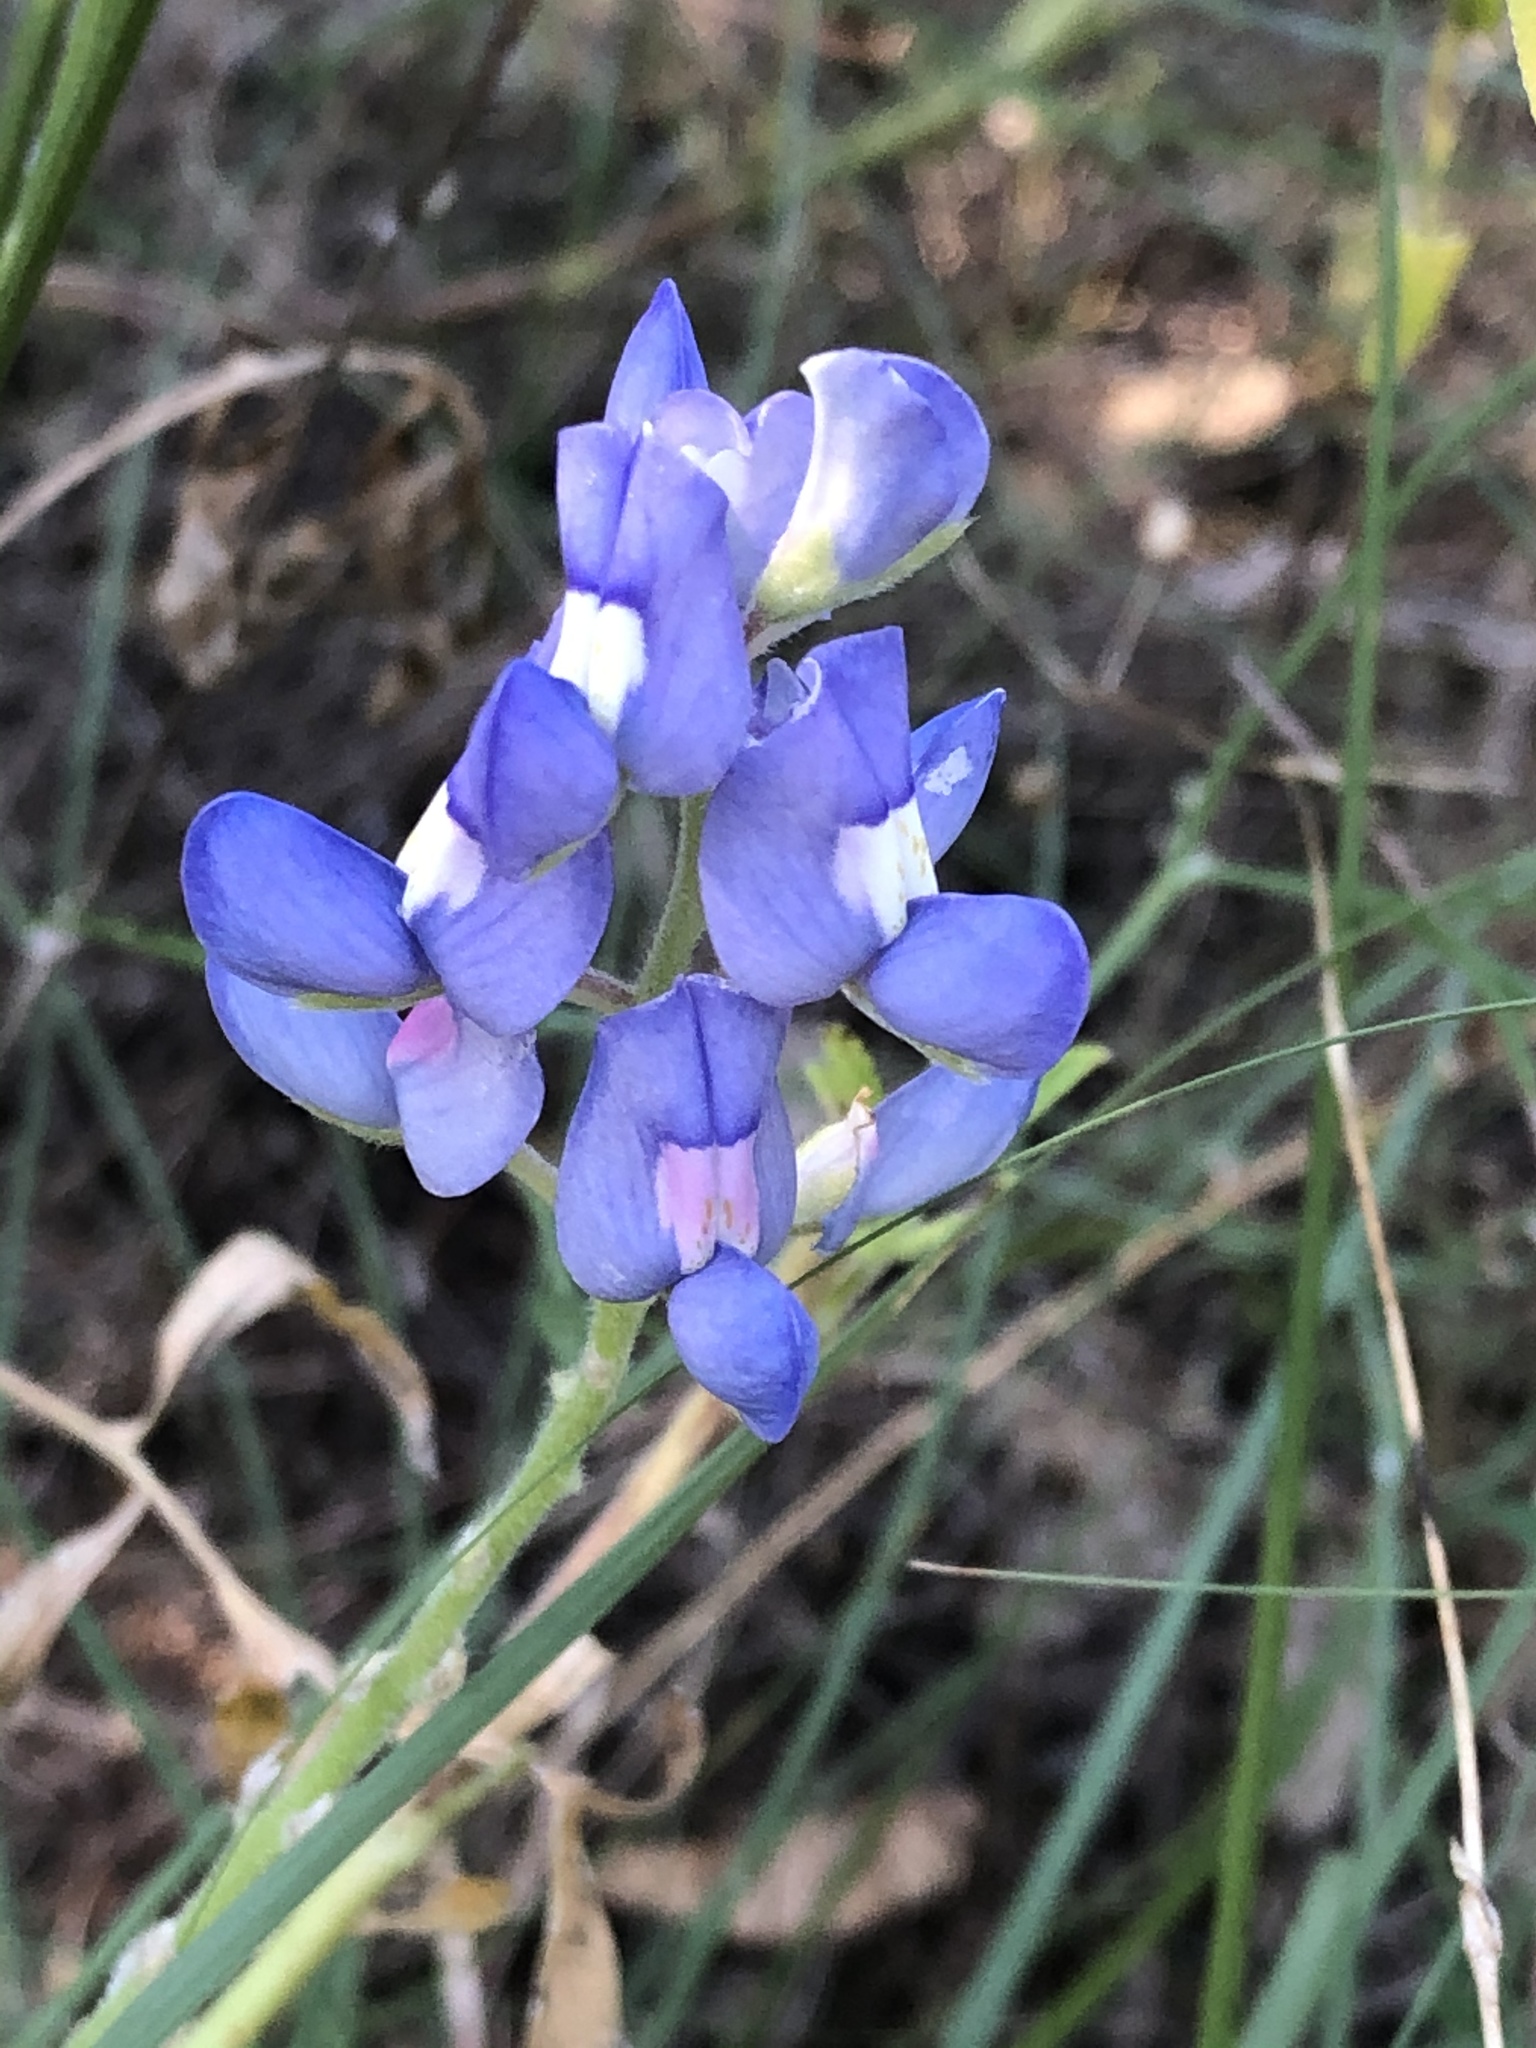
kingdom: Plantae
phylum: Tracheophyta
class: Magnoliopsida
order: Fabales
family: Fabaceae
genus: Lupinus
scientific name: Lupinus texensis
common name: Texas bluebonnet
